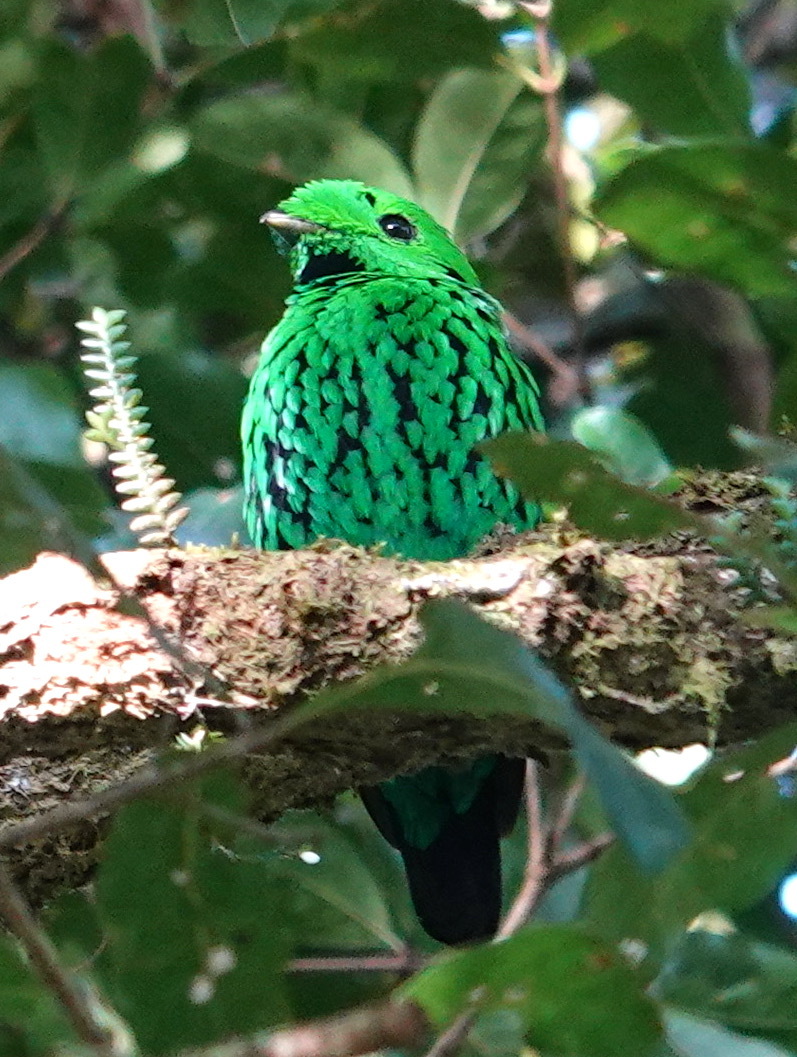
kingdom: Animalia
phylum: Chordata
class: Aves
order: Passeriformes
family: Eurylaimidae
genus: Calyptomena
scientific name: Calyptomena whiteheadi
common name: Whitehead's broadbill
